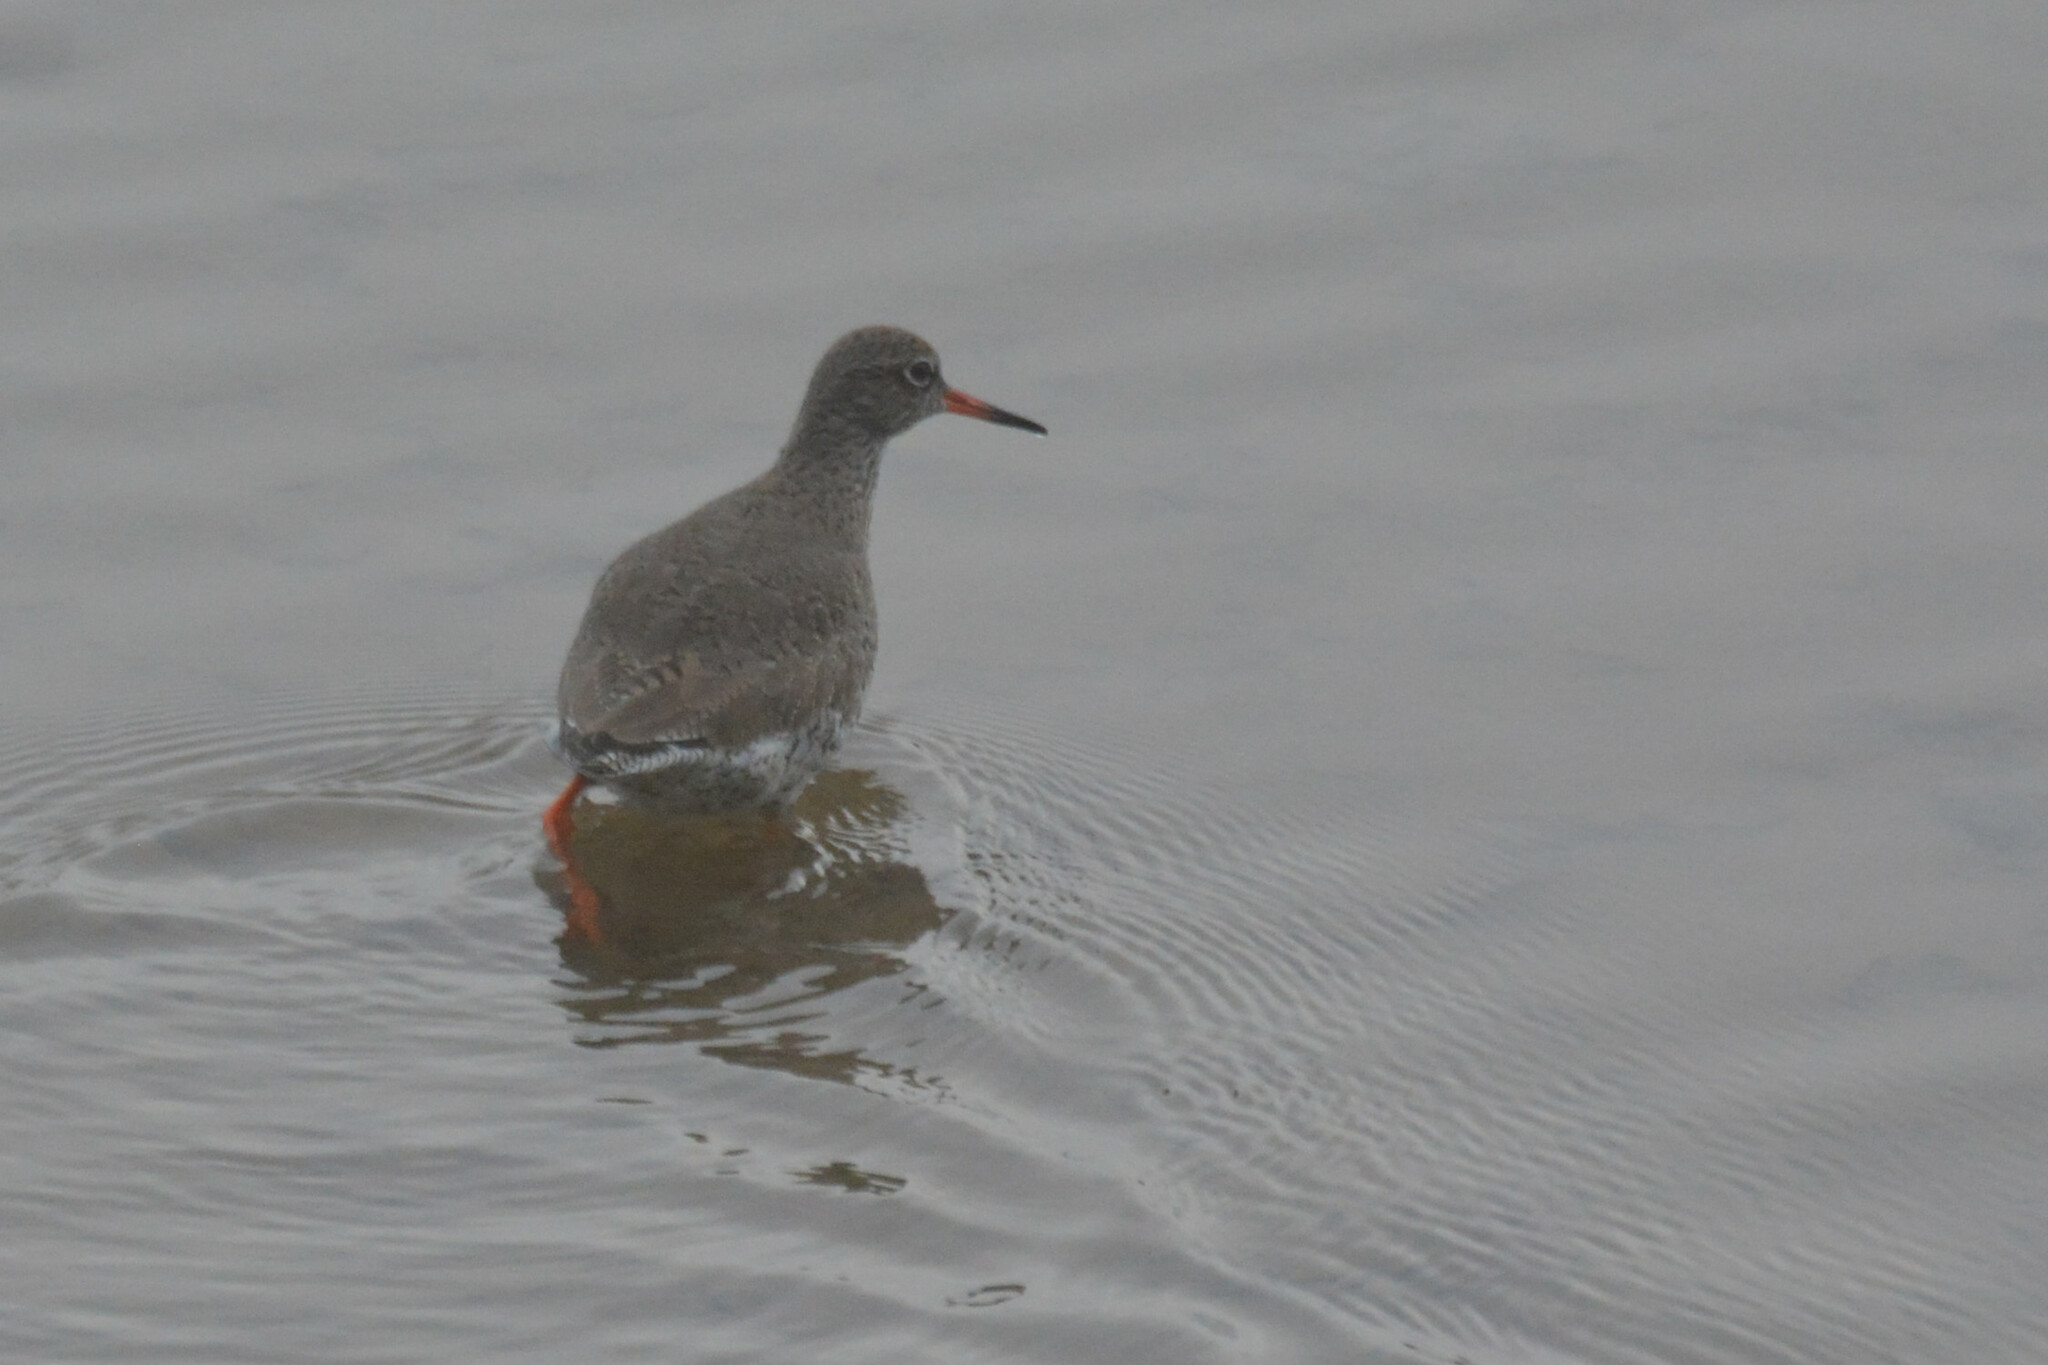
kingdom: Animalia
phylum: Chordata
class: Aves
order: Charadriiformes
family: Scolopacidae
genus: Tringa
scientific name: Tringa totanus
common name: Common redshank
